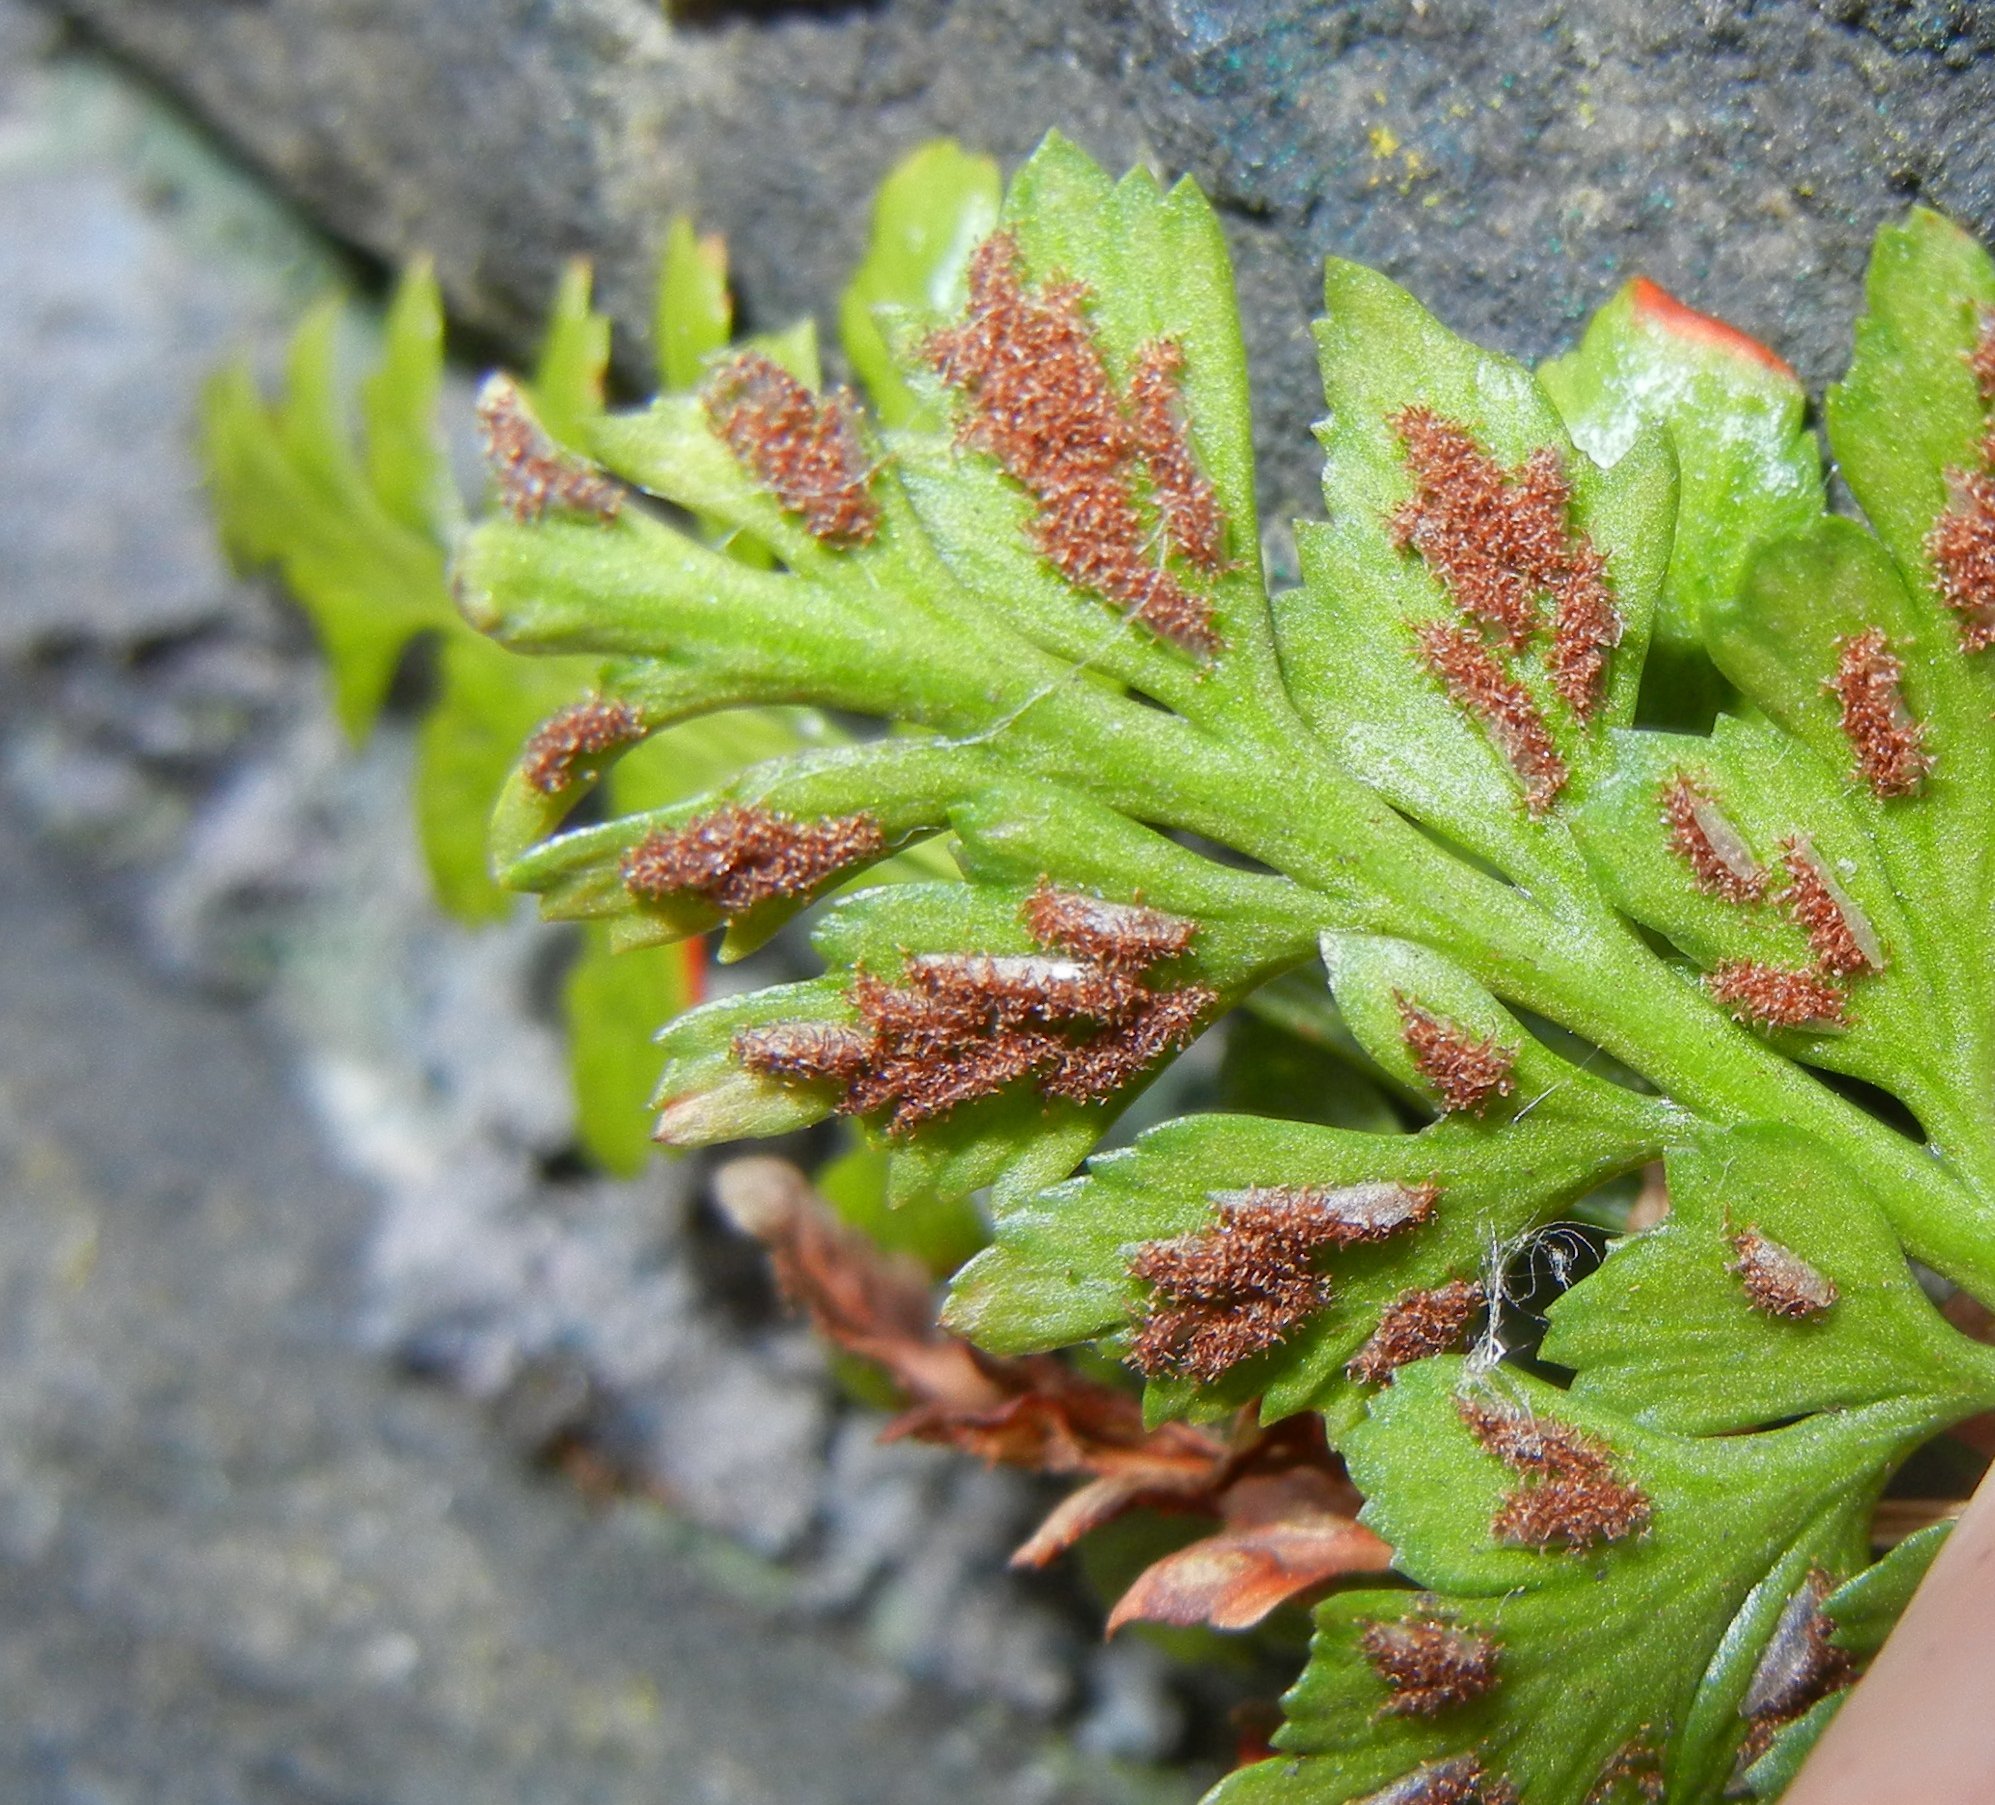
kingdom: Plantae
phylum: Tracheophyta
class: Polypodiopsida
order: Polypodiales
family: Aspleniaceae
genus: Asplenium
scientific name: Asplenium adiantum-nigrum
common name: Black spleenwort
